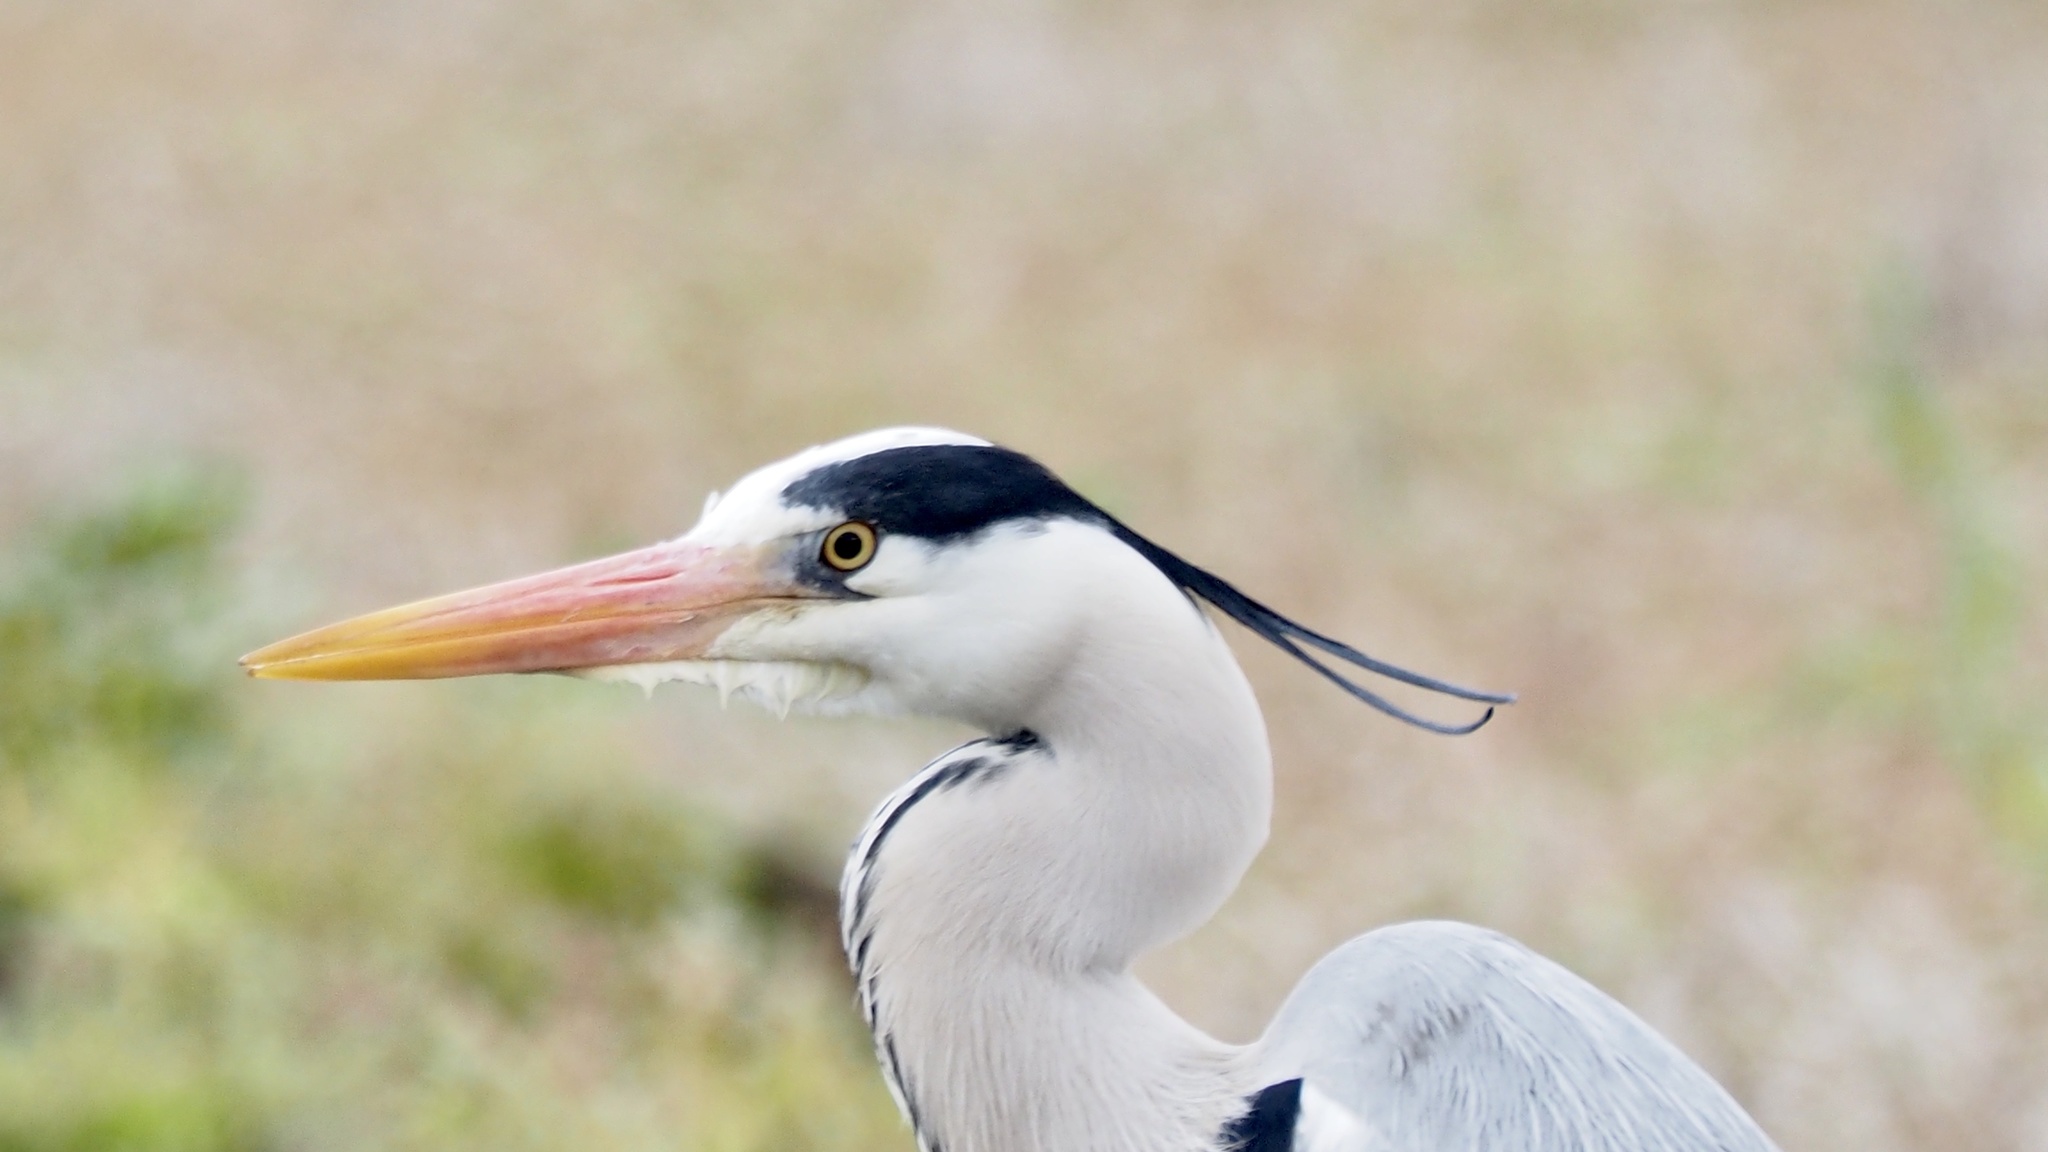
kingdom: Animalia
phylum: Chordata
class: Aves
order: Pelecaniformes
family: Ardeidae
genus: Ardea
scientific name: Ardea cinerea
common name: Grey heron
